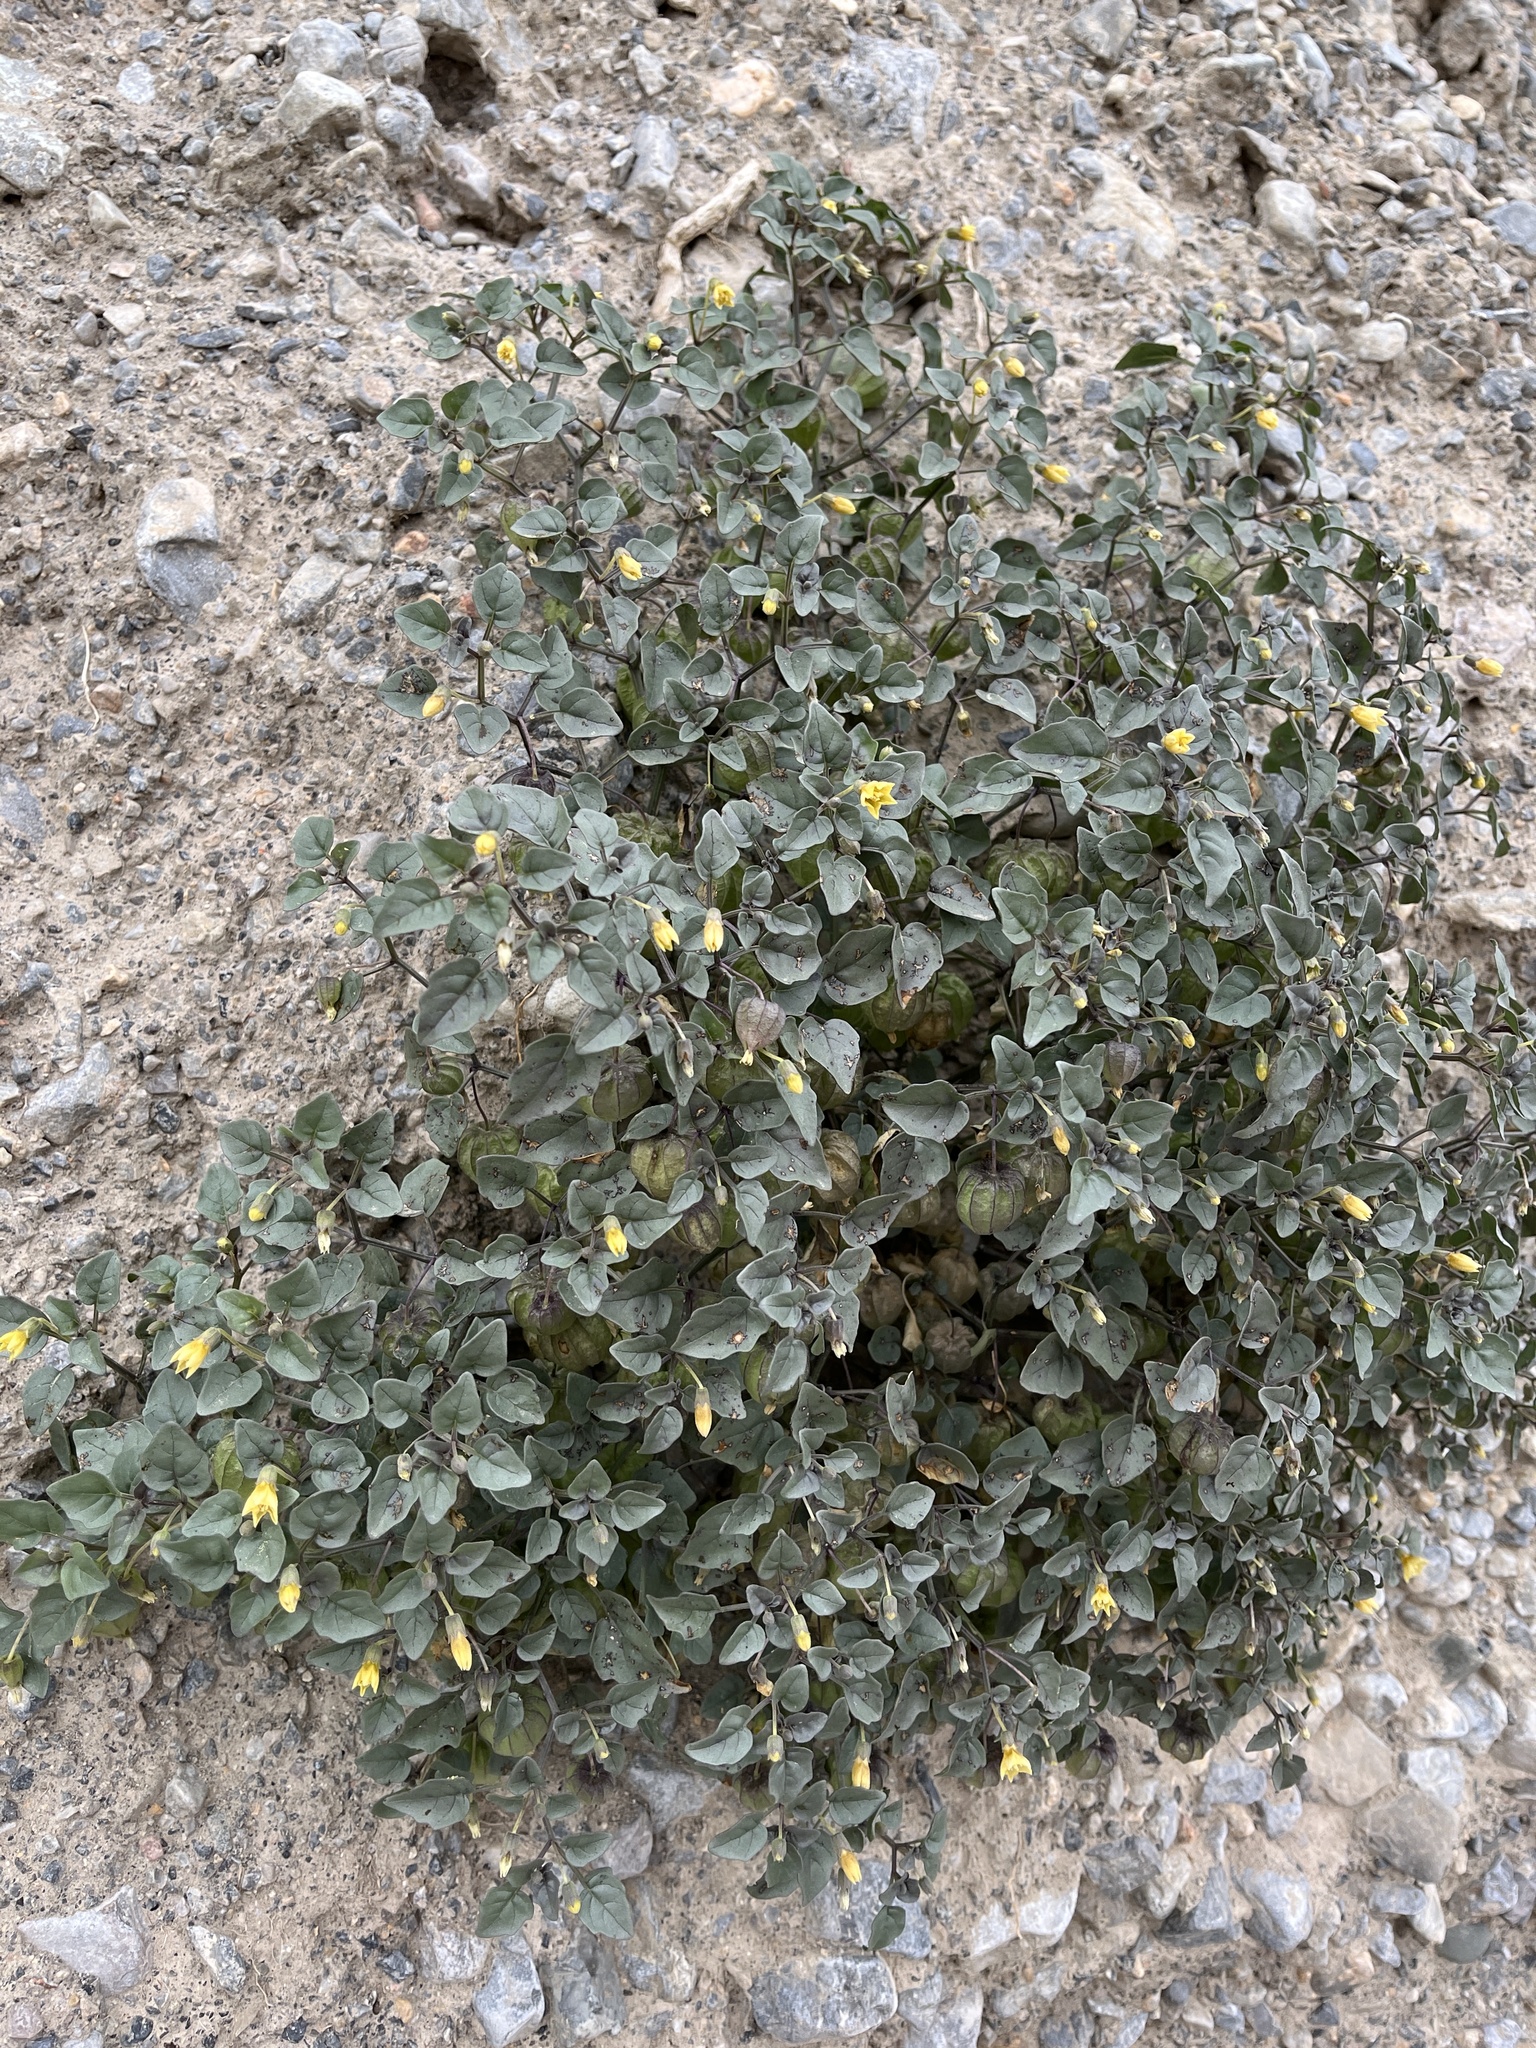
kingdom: Plantae
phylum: Tracheophyta
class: Magnoliopsida
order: Solanales
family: Solanaceae
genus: Physalis
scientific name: Physalis crassifolia
